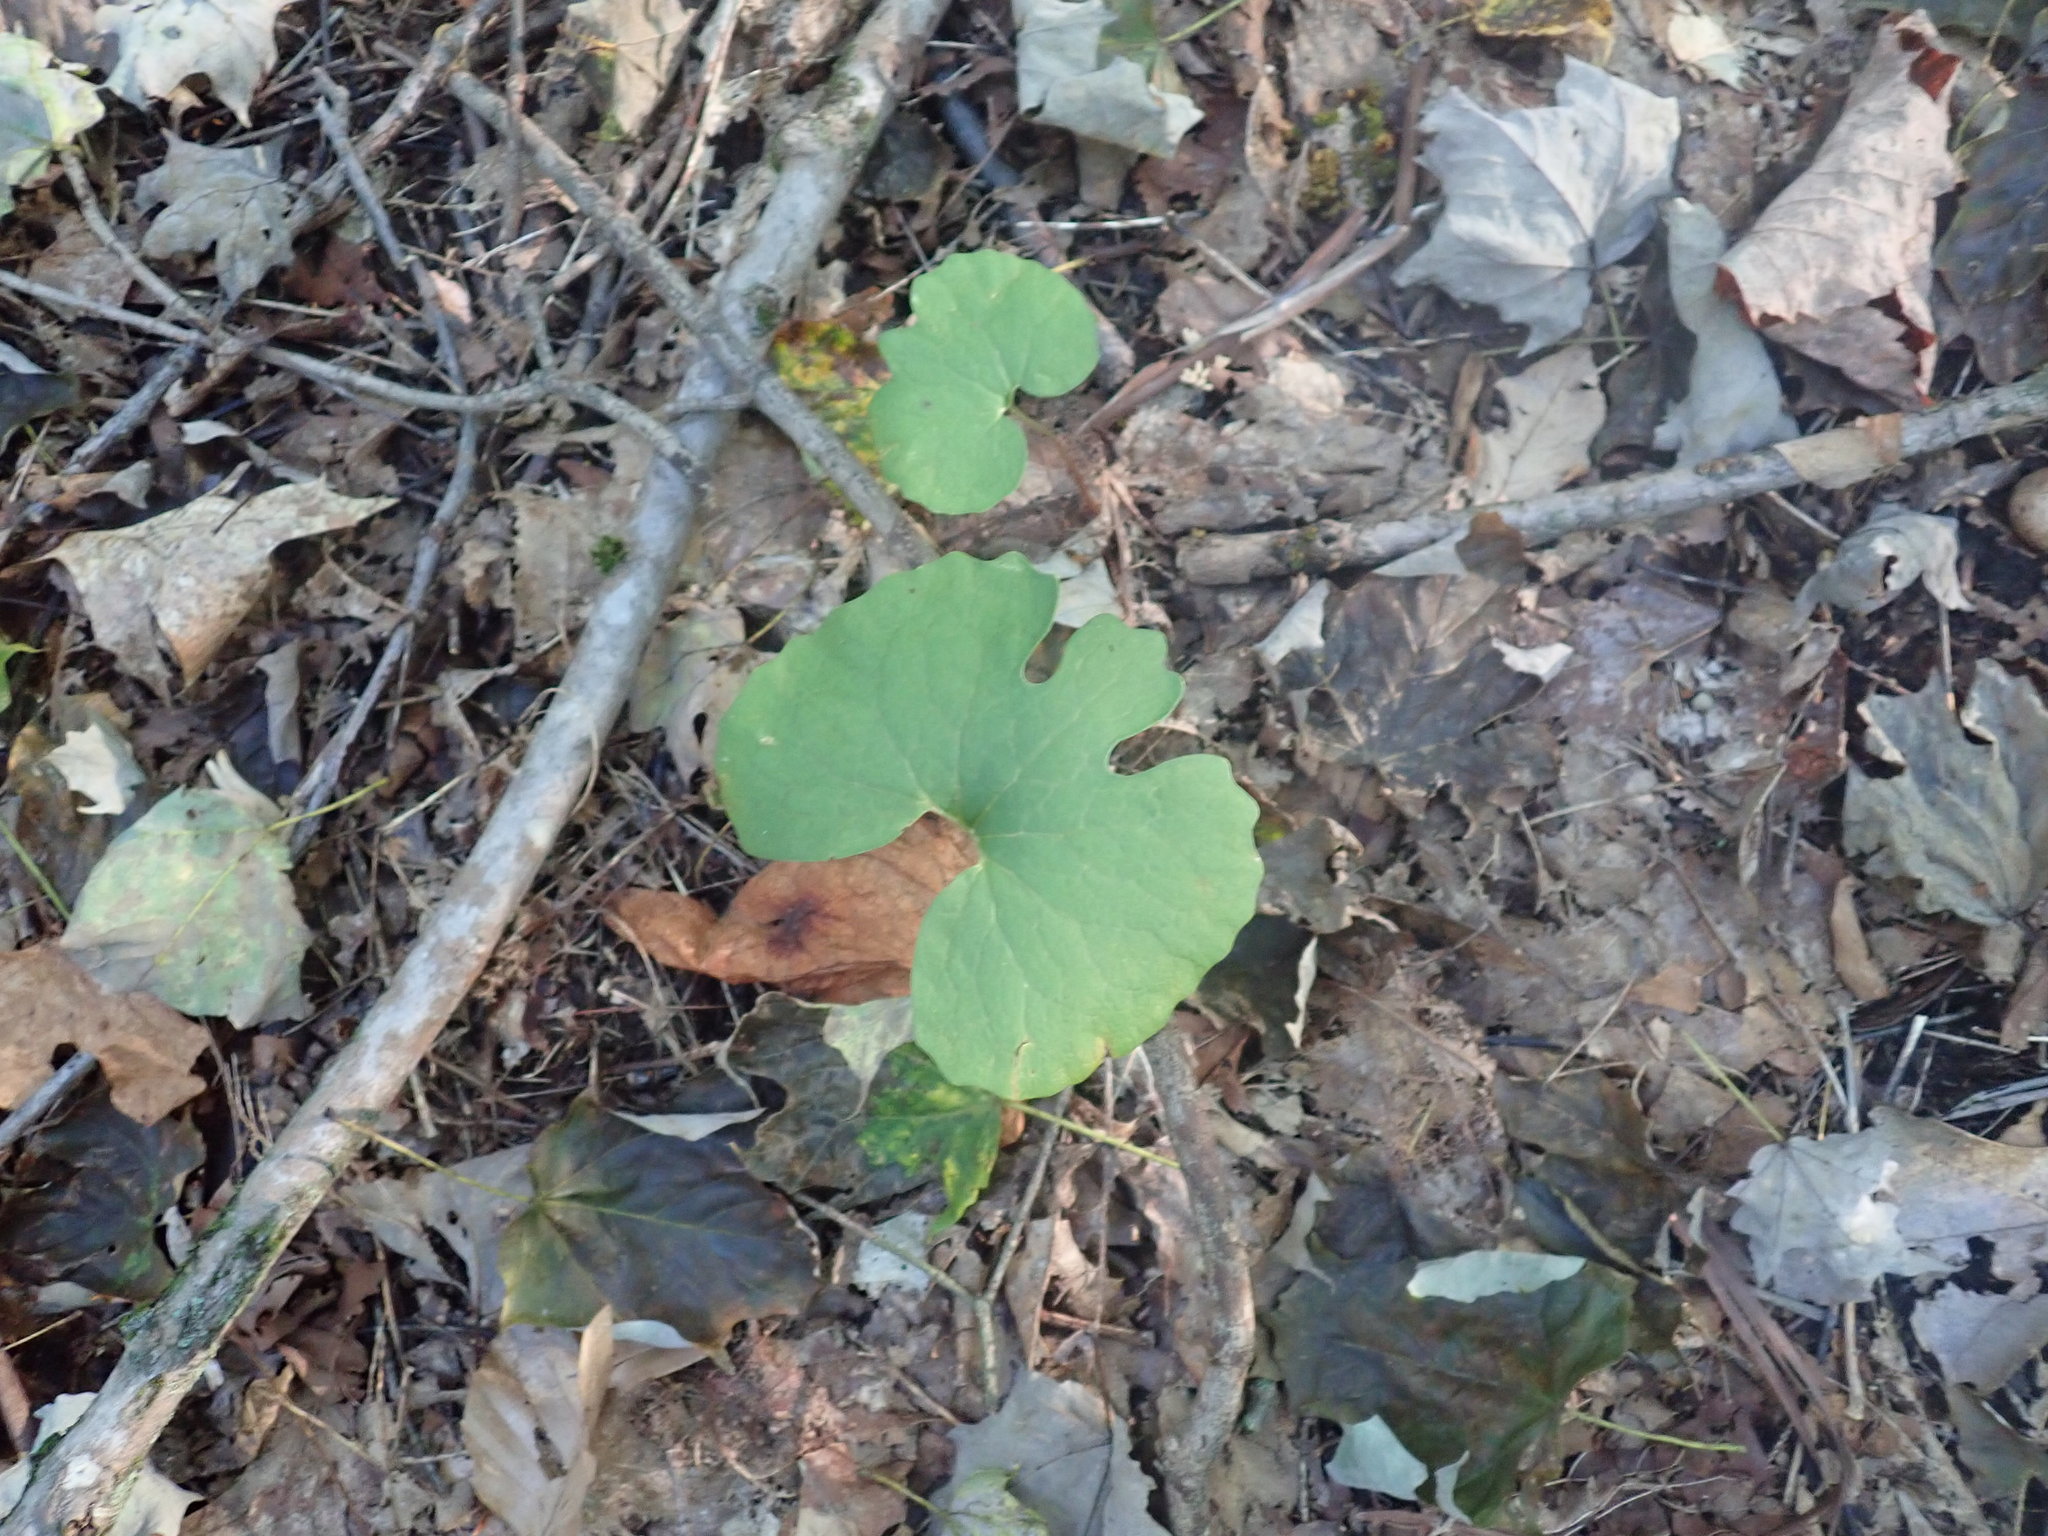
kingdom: Plantae
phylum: Tracheophyta
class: Magnoliopsida
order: Ranunculales
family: Papaveraceae
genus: Sanguinaria
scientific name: Sanguinaria canadensis
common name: Bloodroot
